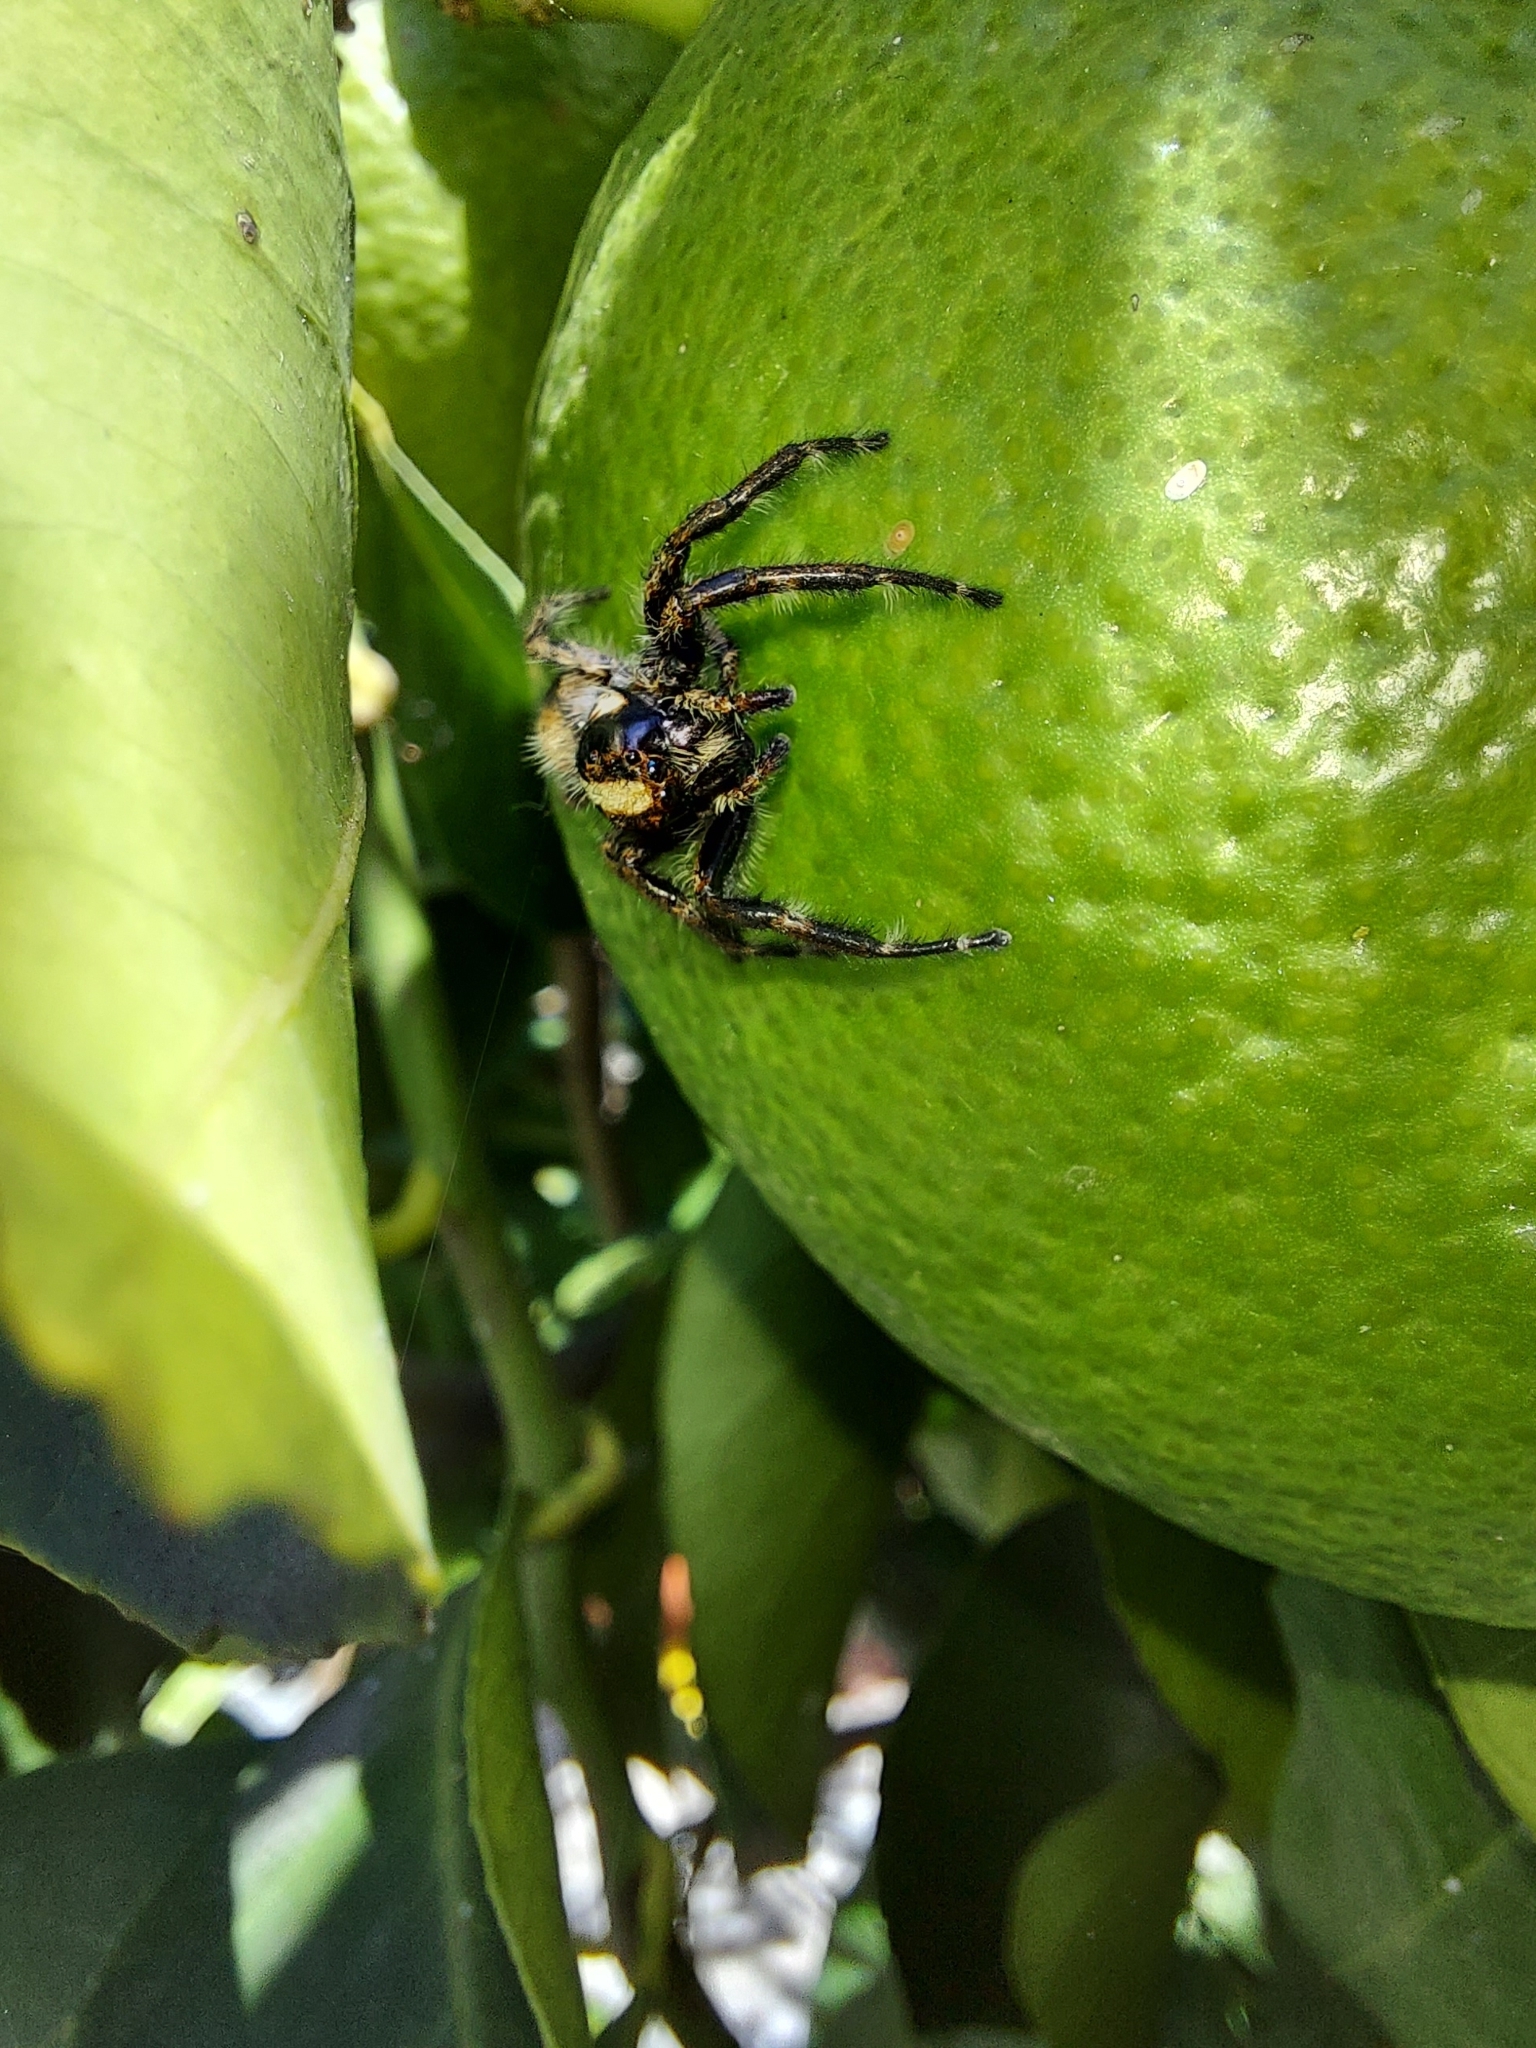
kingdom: Animalia
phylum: Arthropoda
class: Arachnida
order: Araneae
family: Salticidae
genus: Megafreya
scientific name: Megafreya sutrix
